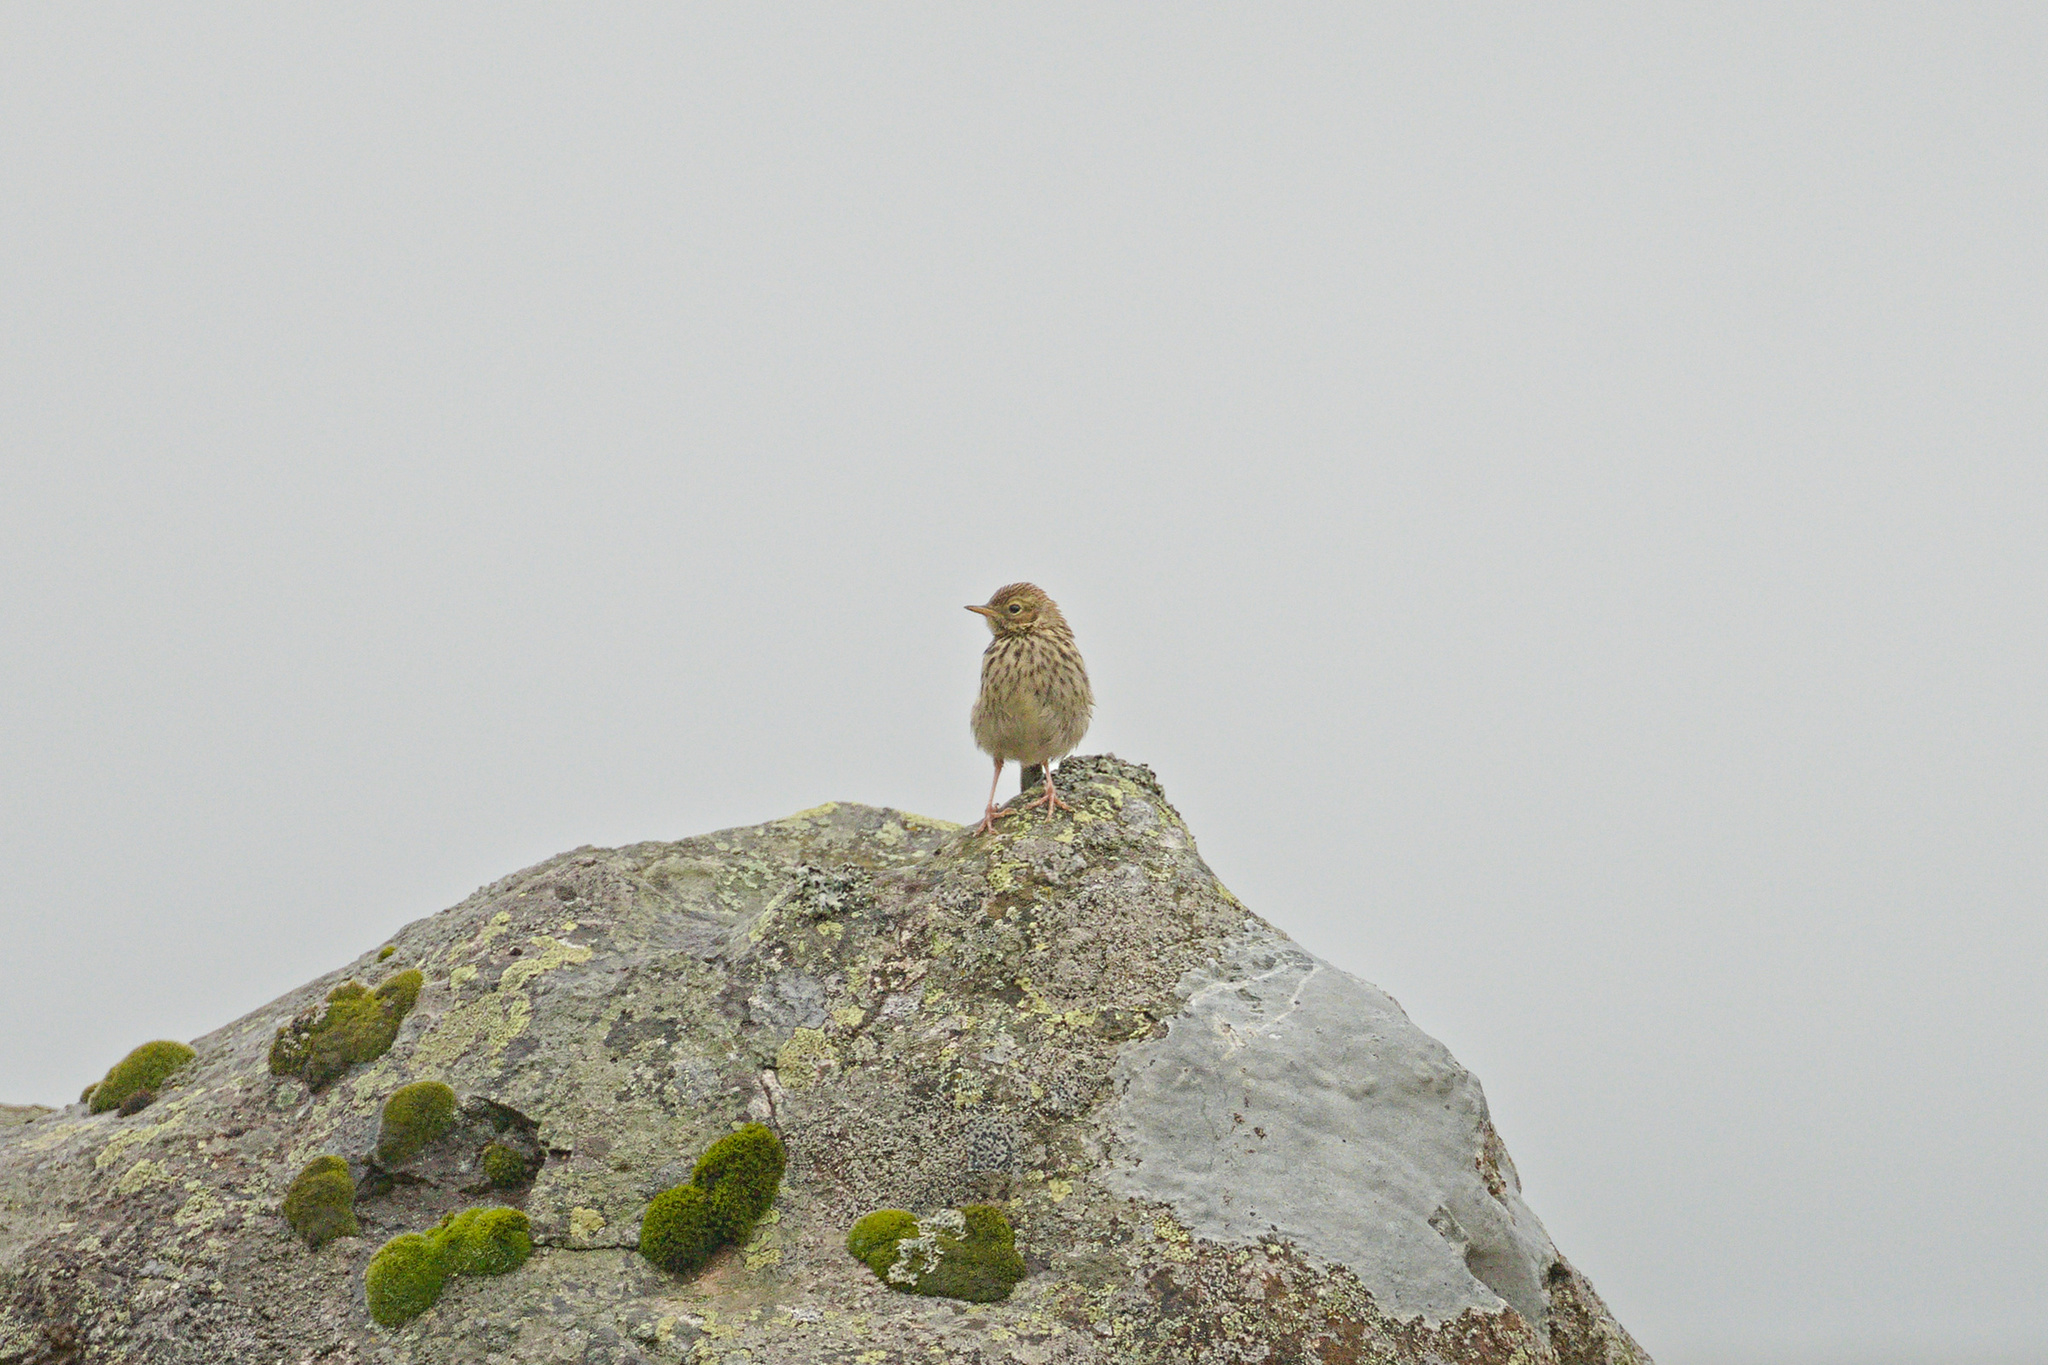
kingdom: Animalia
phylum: Chordata
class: Aves
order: Passeriformes
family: Motacillidae
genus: Anthus
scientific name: Anthus pratensis
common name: Meadow pipit
